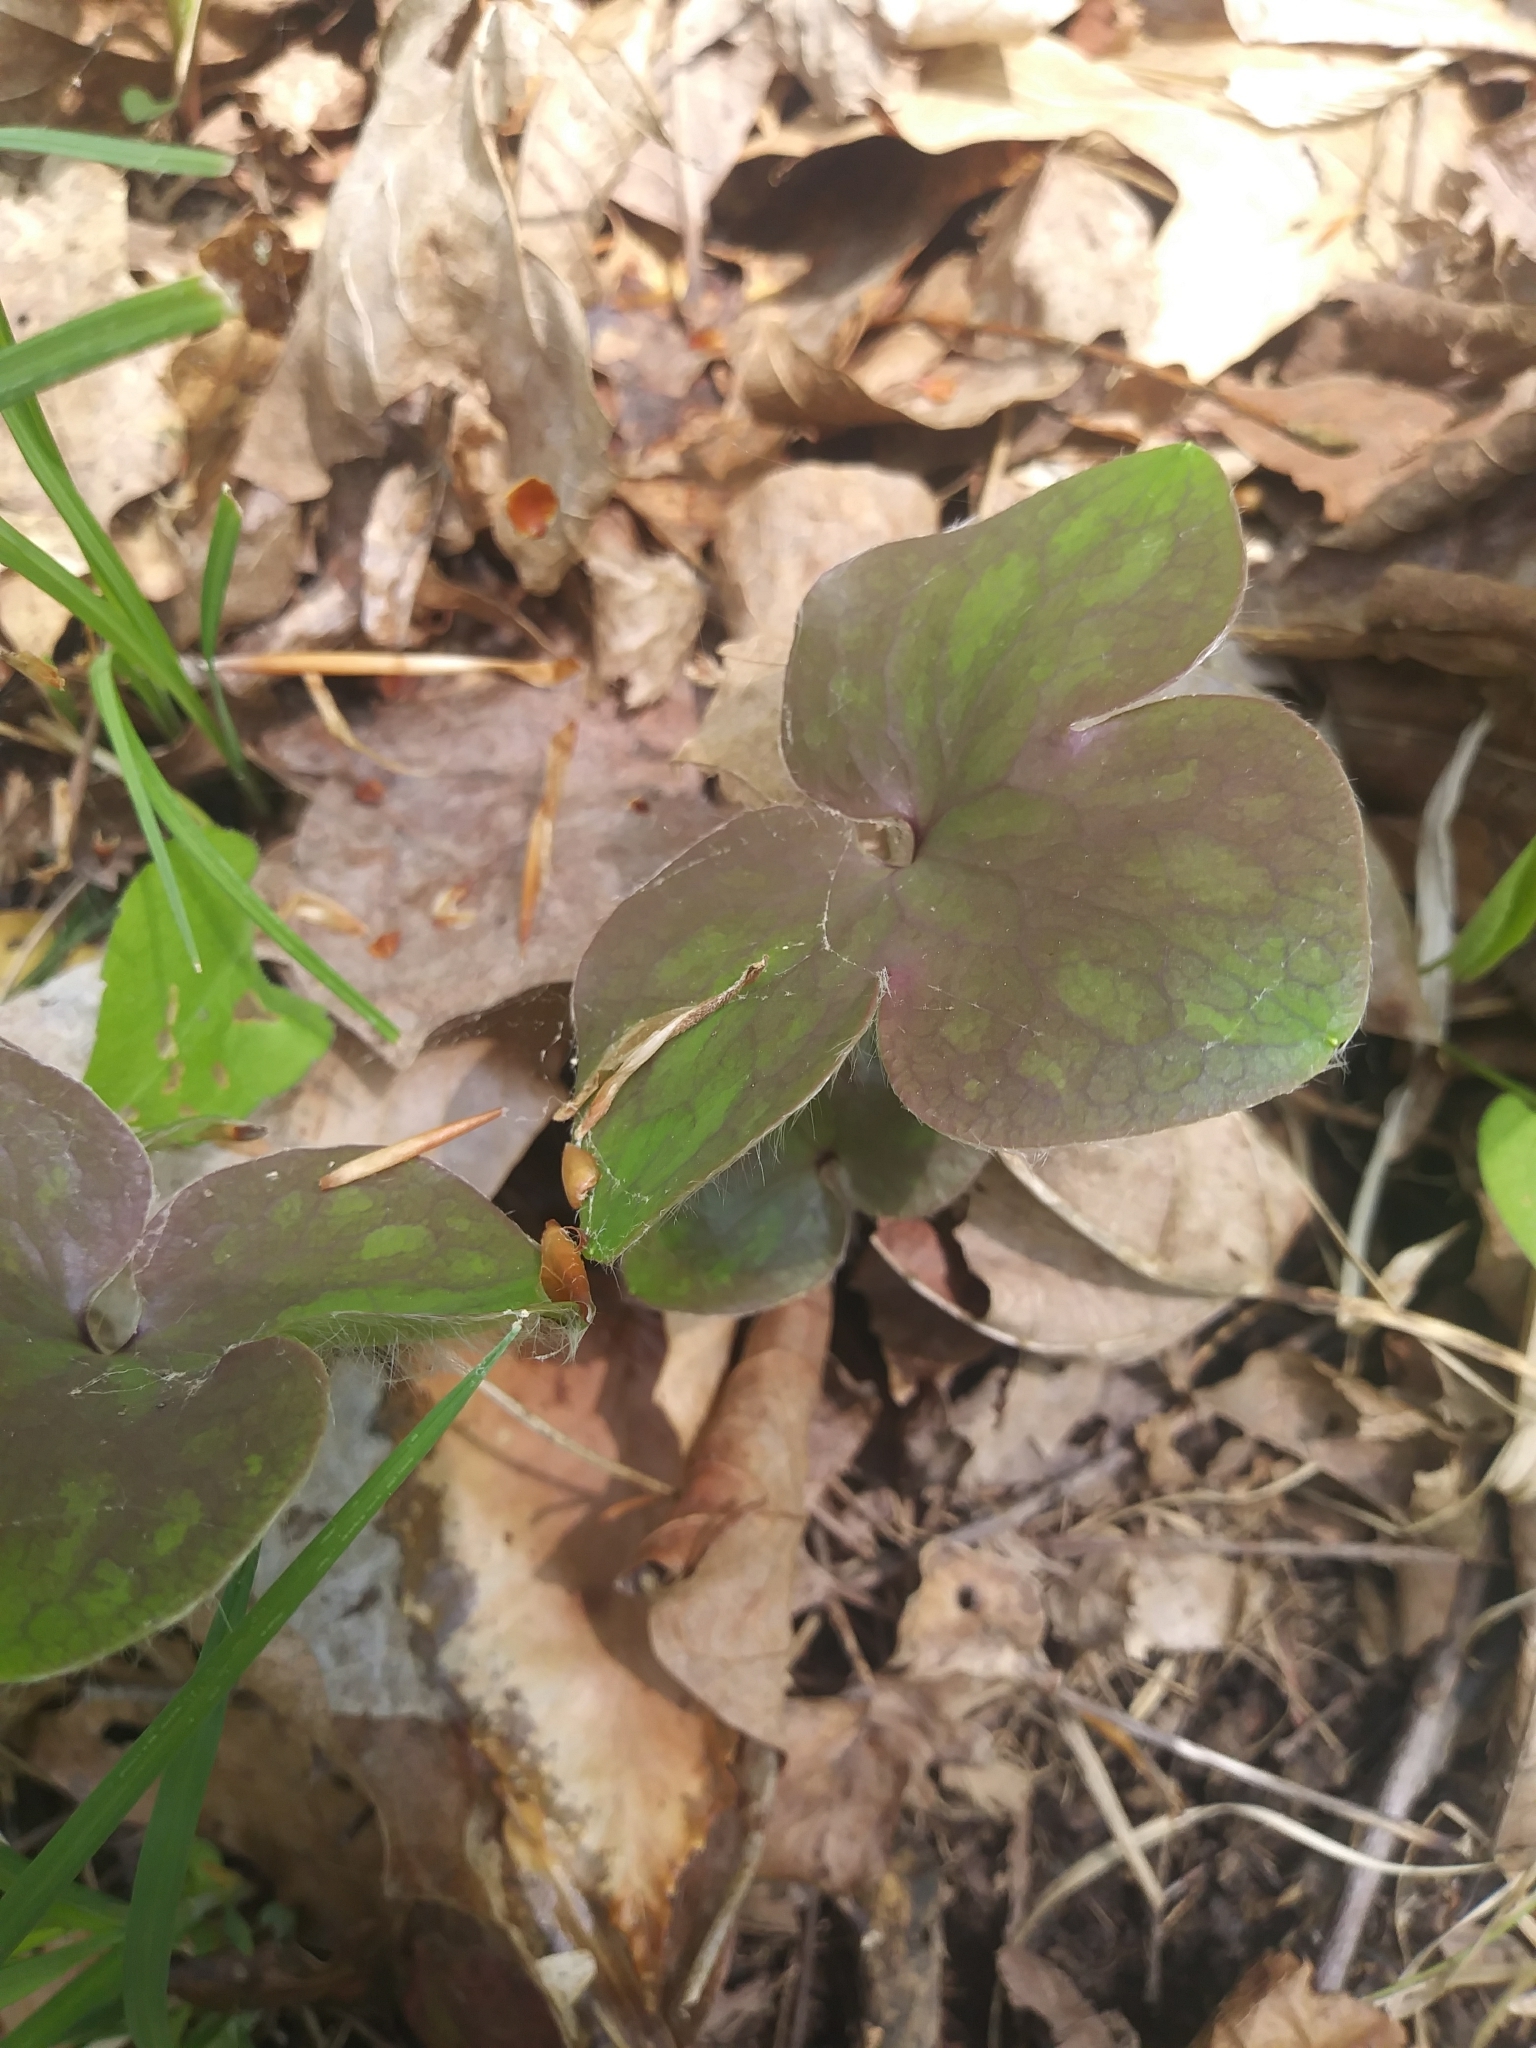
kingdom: Plantae
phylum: Tracheophyta
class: Magnoliopsida
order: Ranunculales
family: Ranunculaceae
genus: Hepatica
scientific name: Hepatica americana
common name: American hepatica
